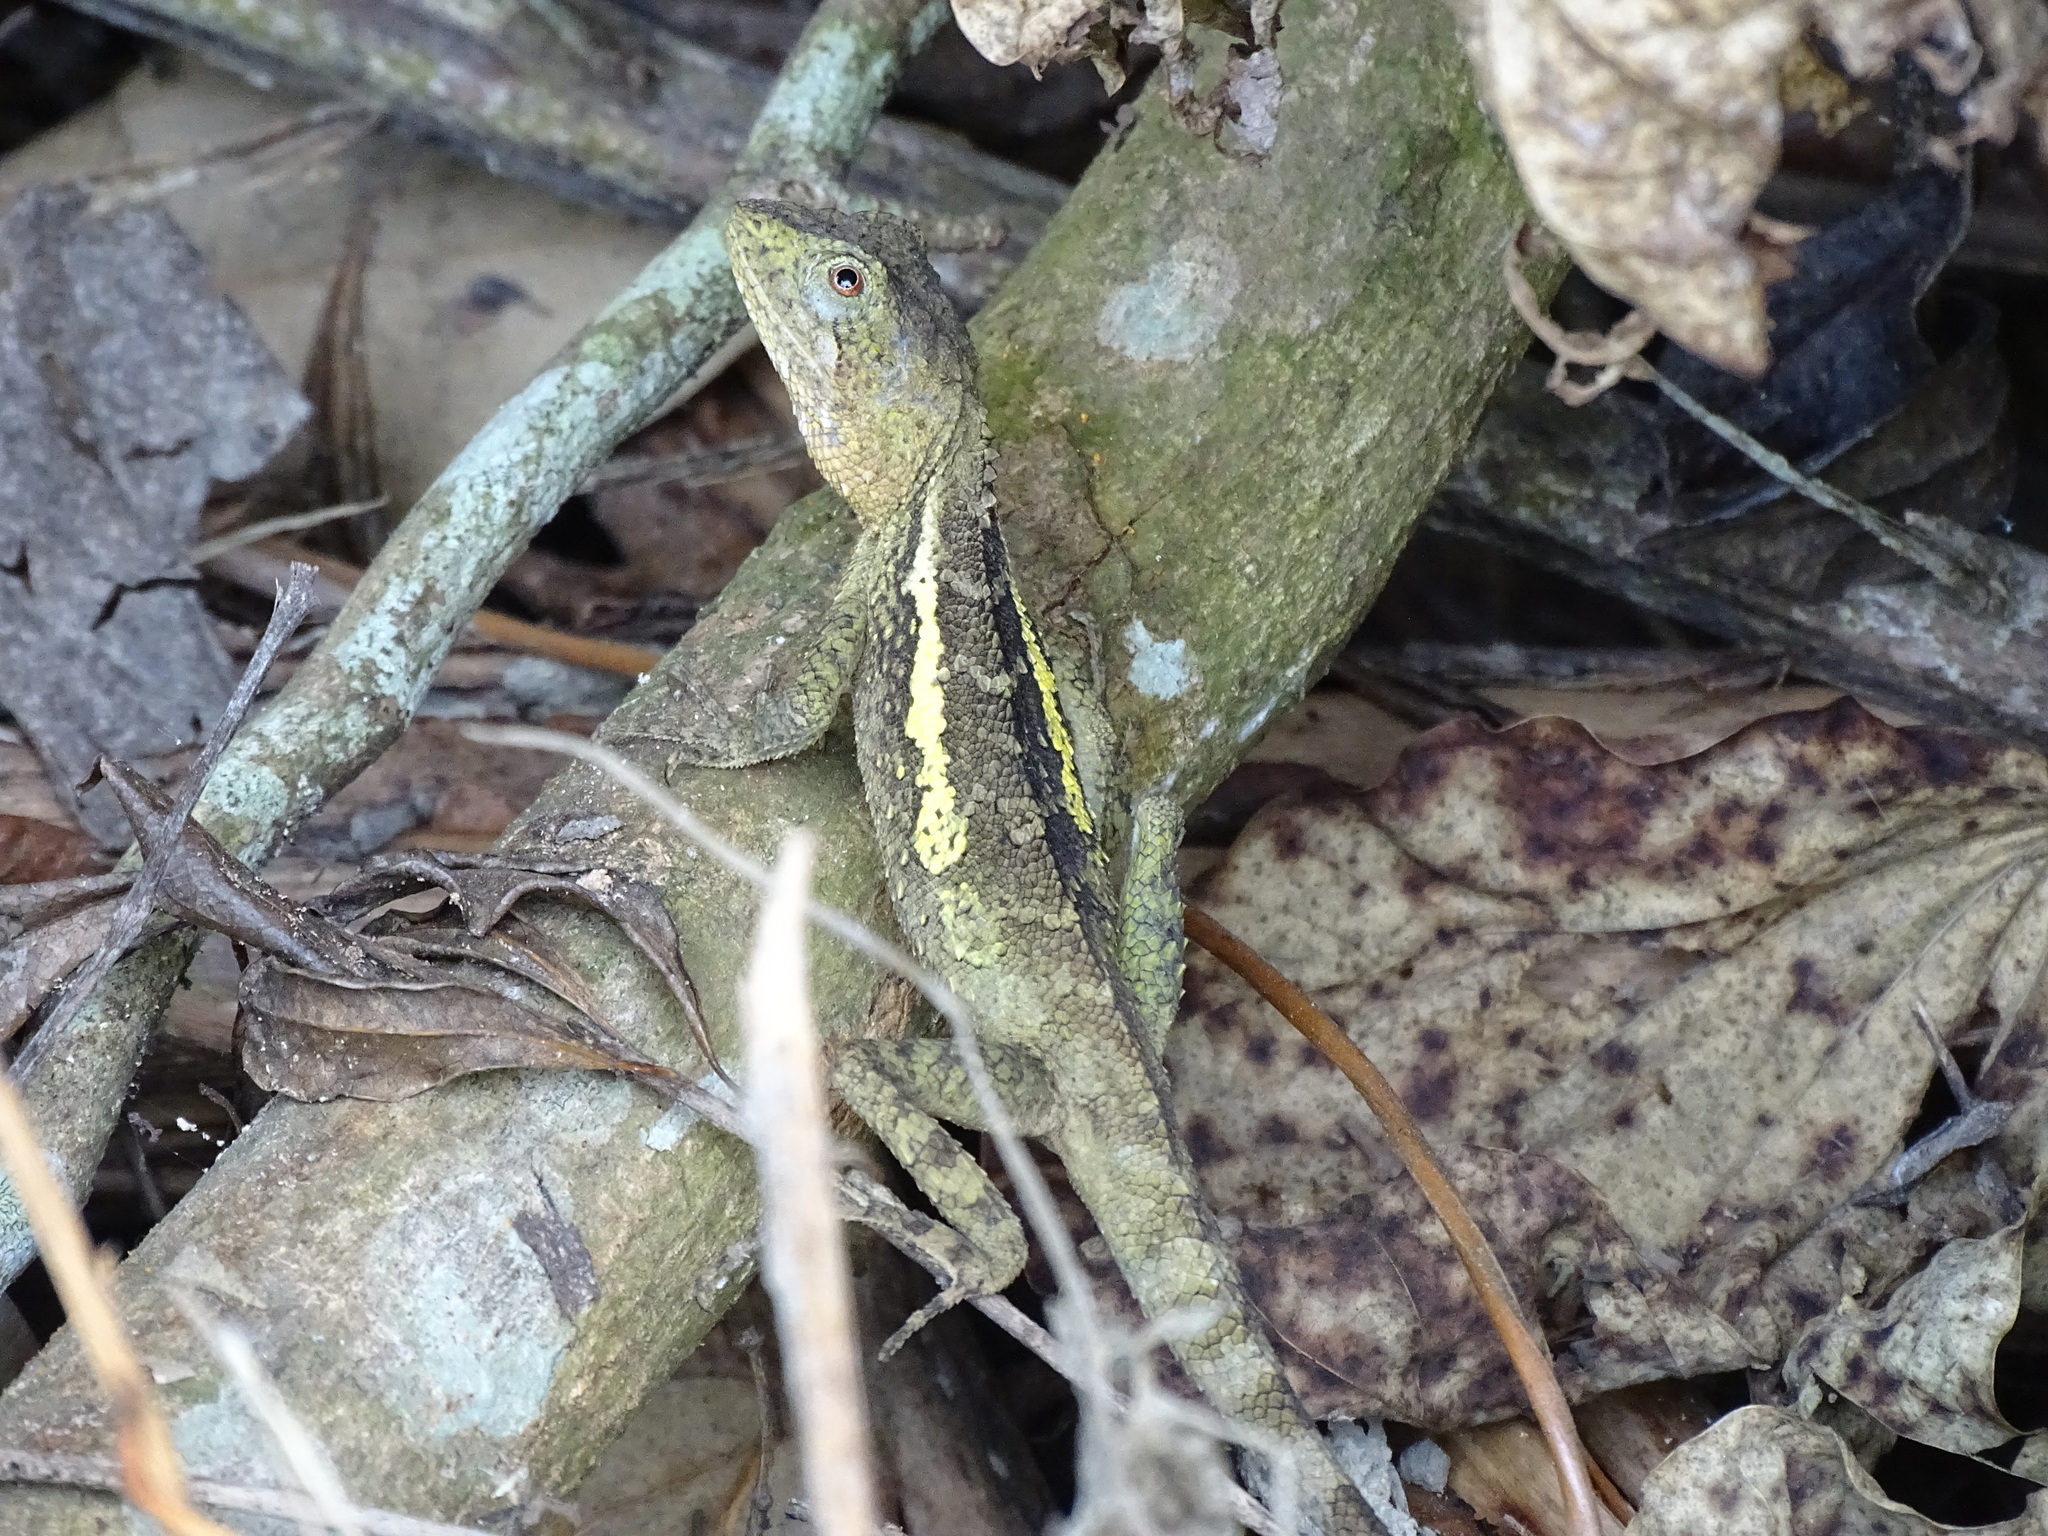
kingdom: Animalia
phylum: Chordata
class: Squamata
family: Agamidae
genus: Diploderma
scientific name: Diploderma swinhonis
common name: Taiwan japalure
